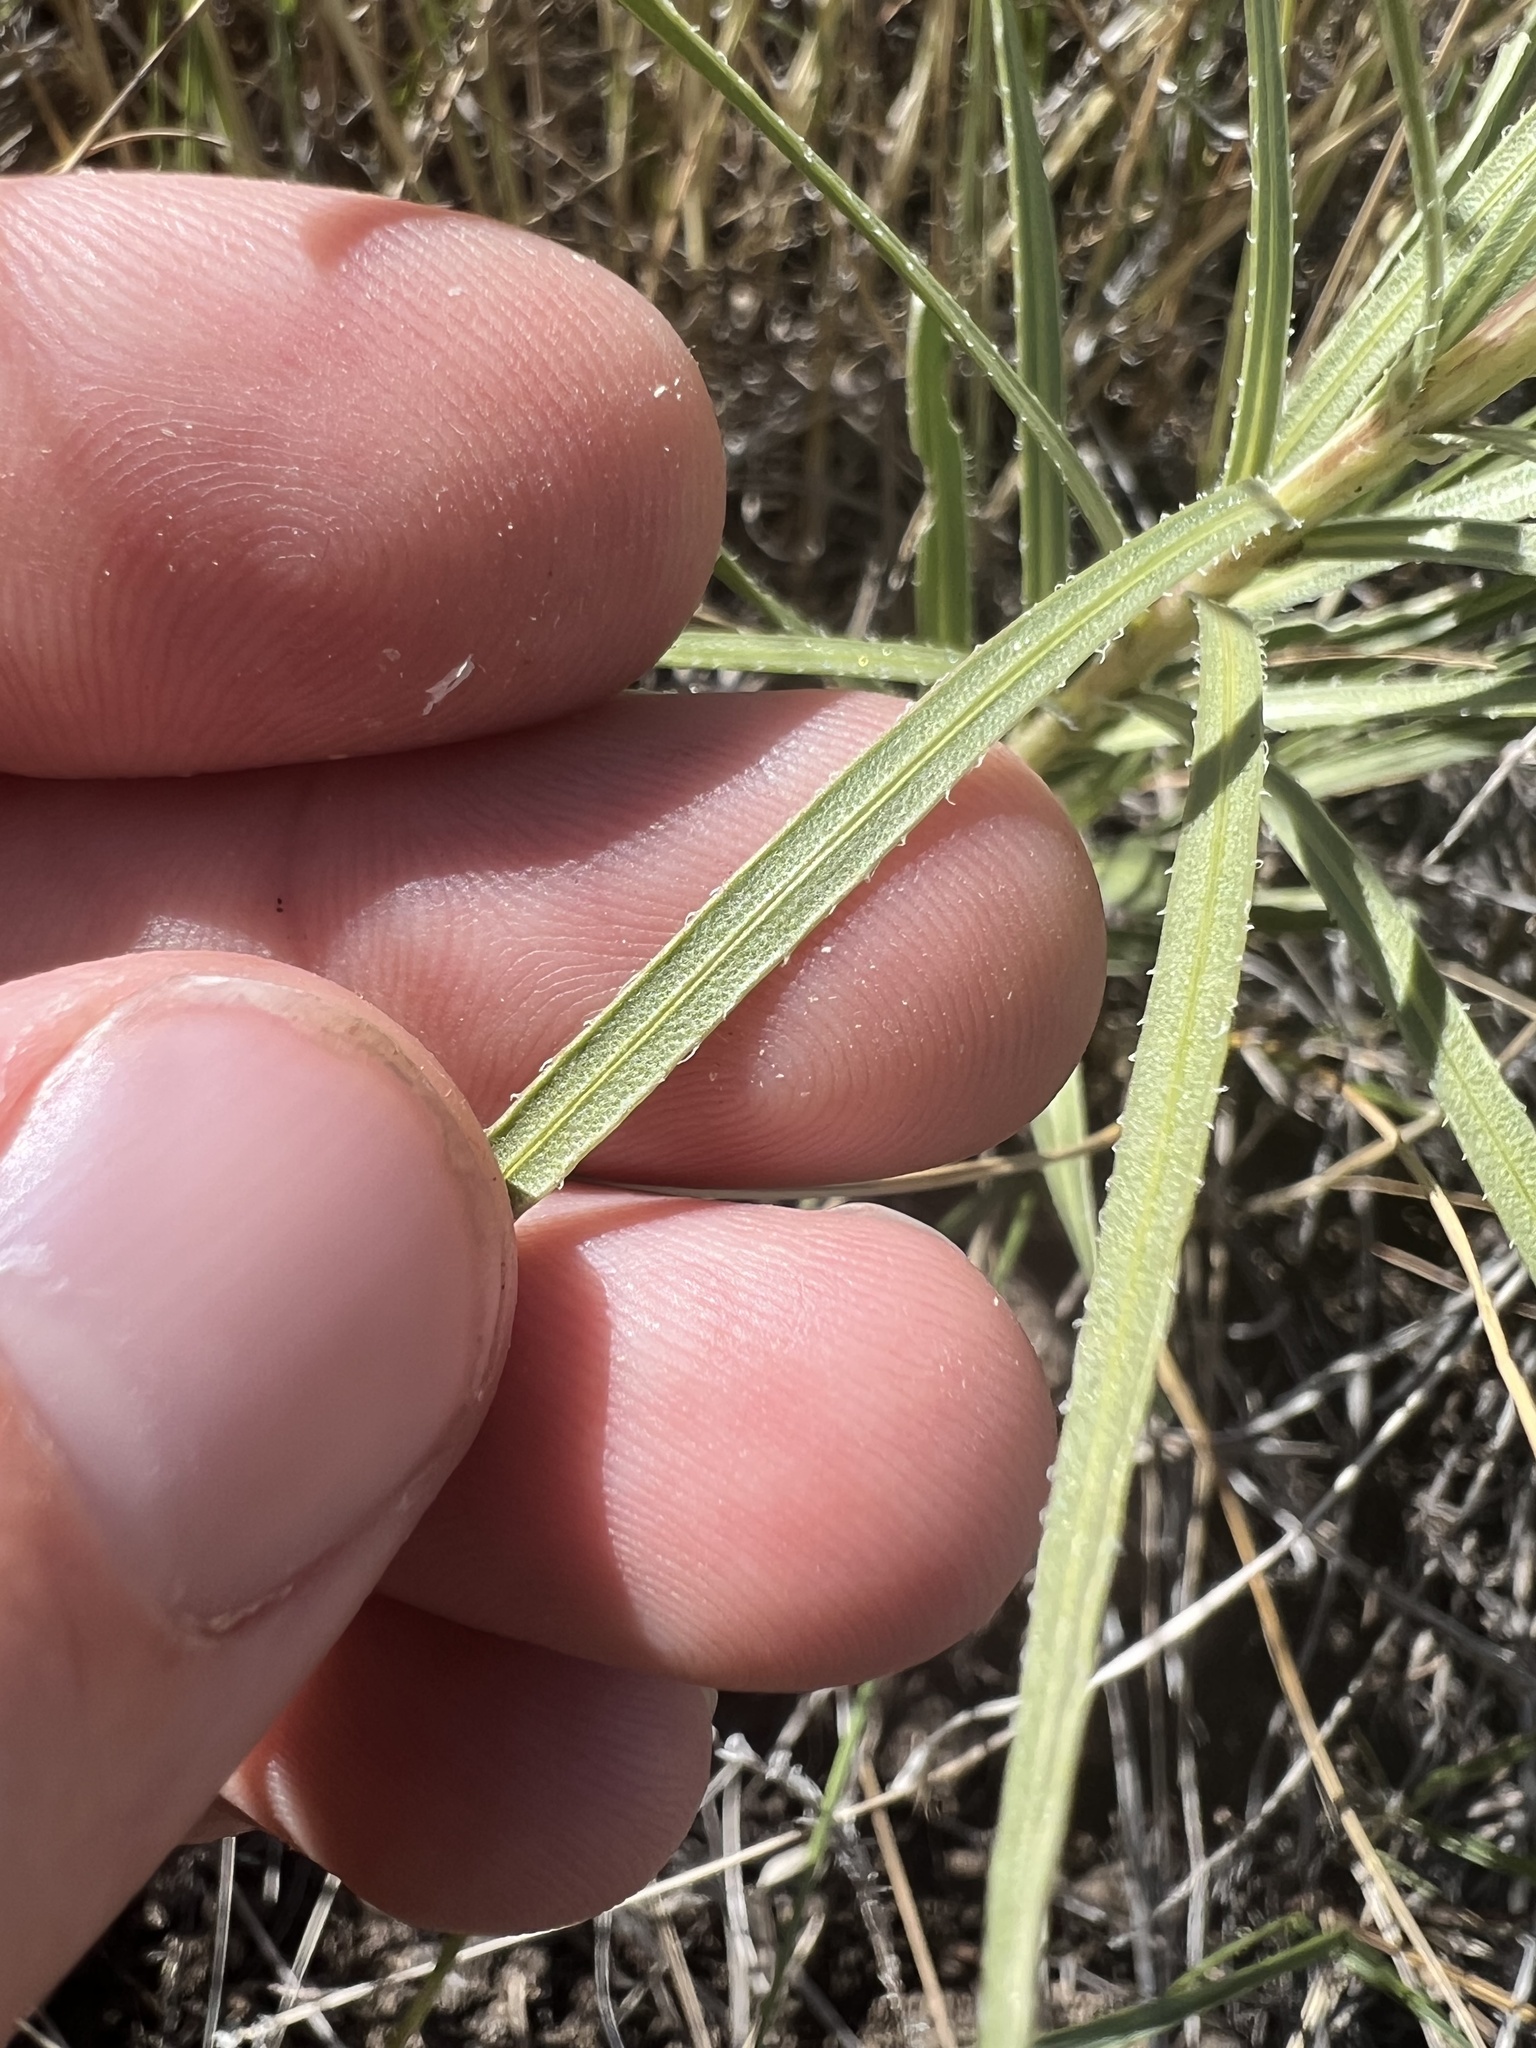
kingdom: Plantae
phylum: Tracheophyta
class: Magnoliopsida
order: Asterales
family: Asteraceae
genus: Liatris
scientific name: Liatris punctata
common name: Dotted gayfeather
